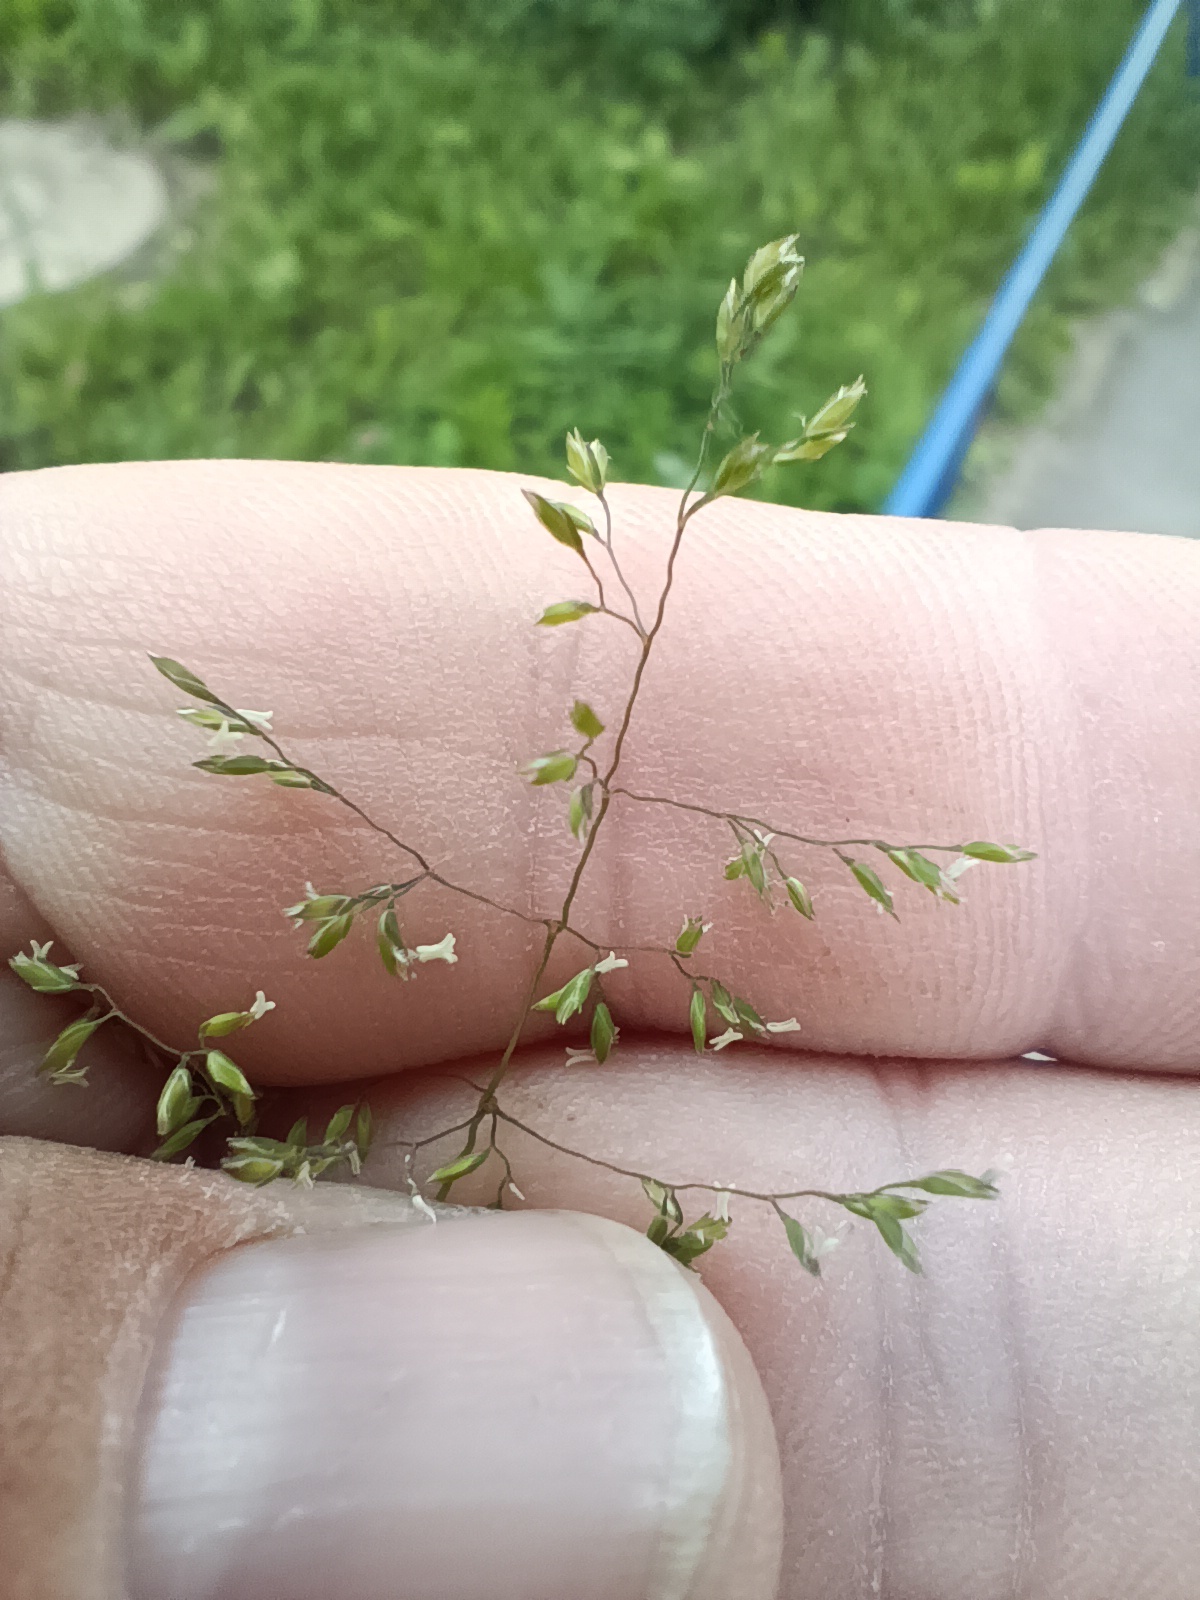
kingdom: Plantae
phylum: Tracheophyta
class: Liliopsida
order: Poales
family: Poaceae
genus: Poa
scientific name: Poa trivialis
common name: Rough bluegrass
